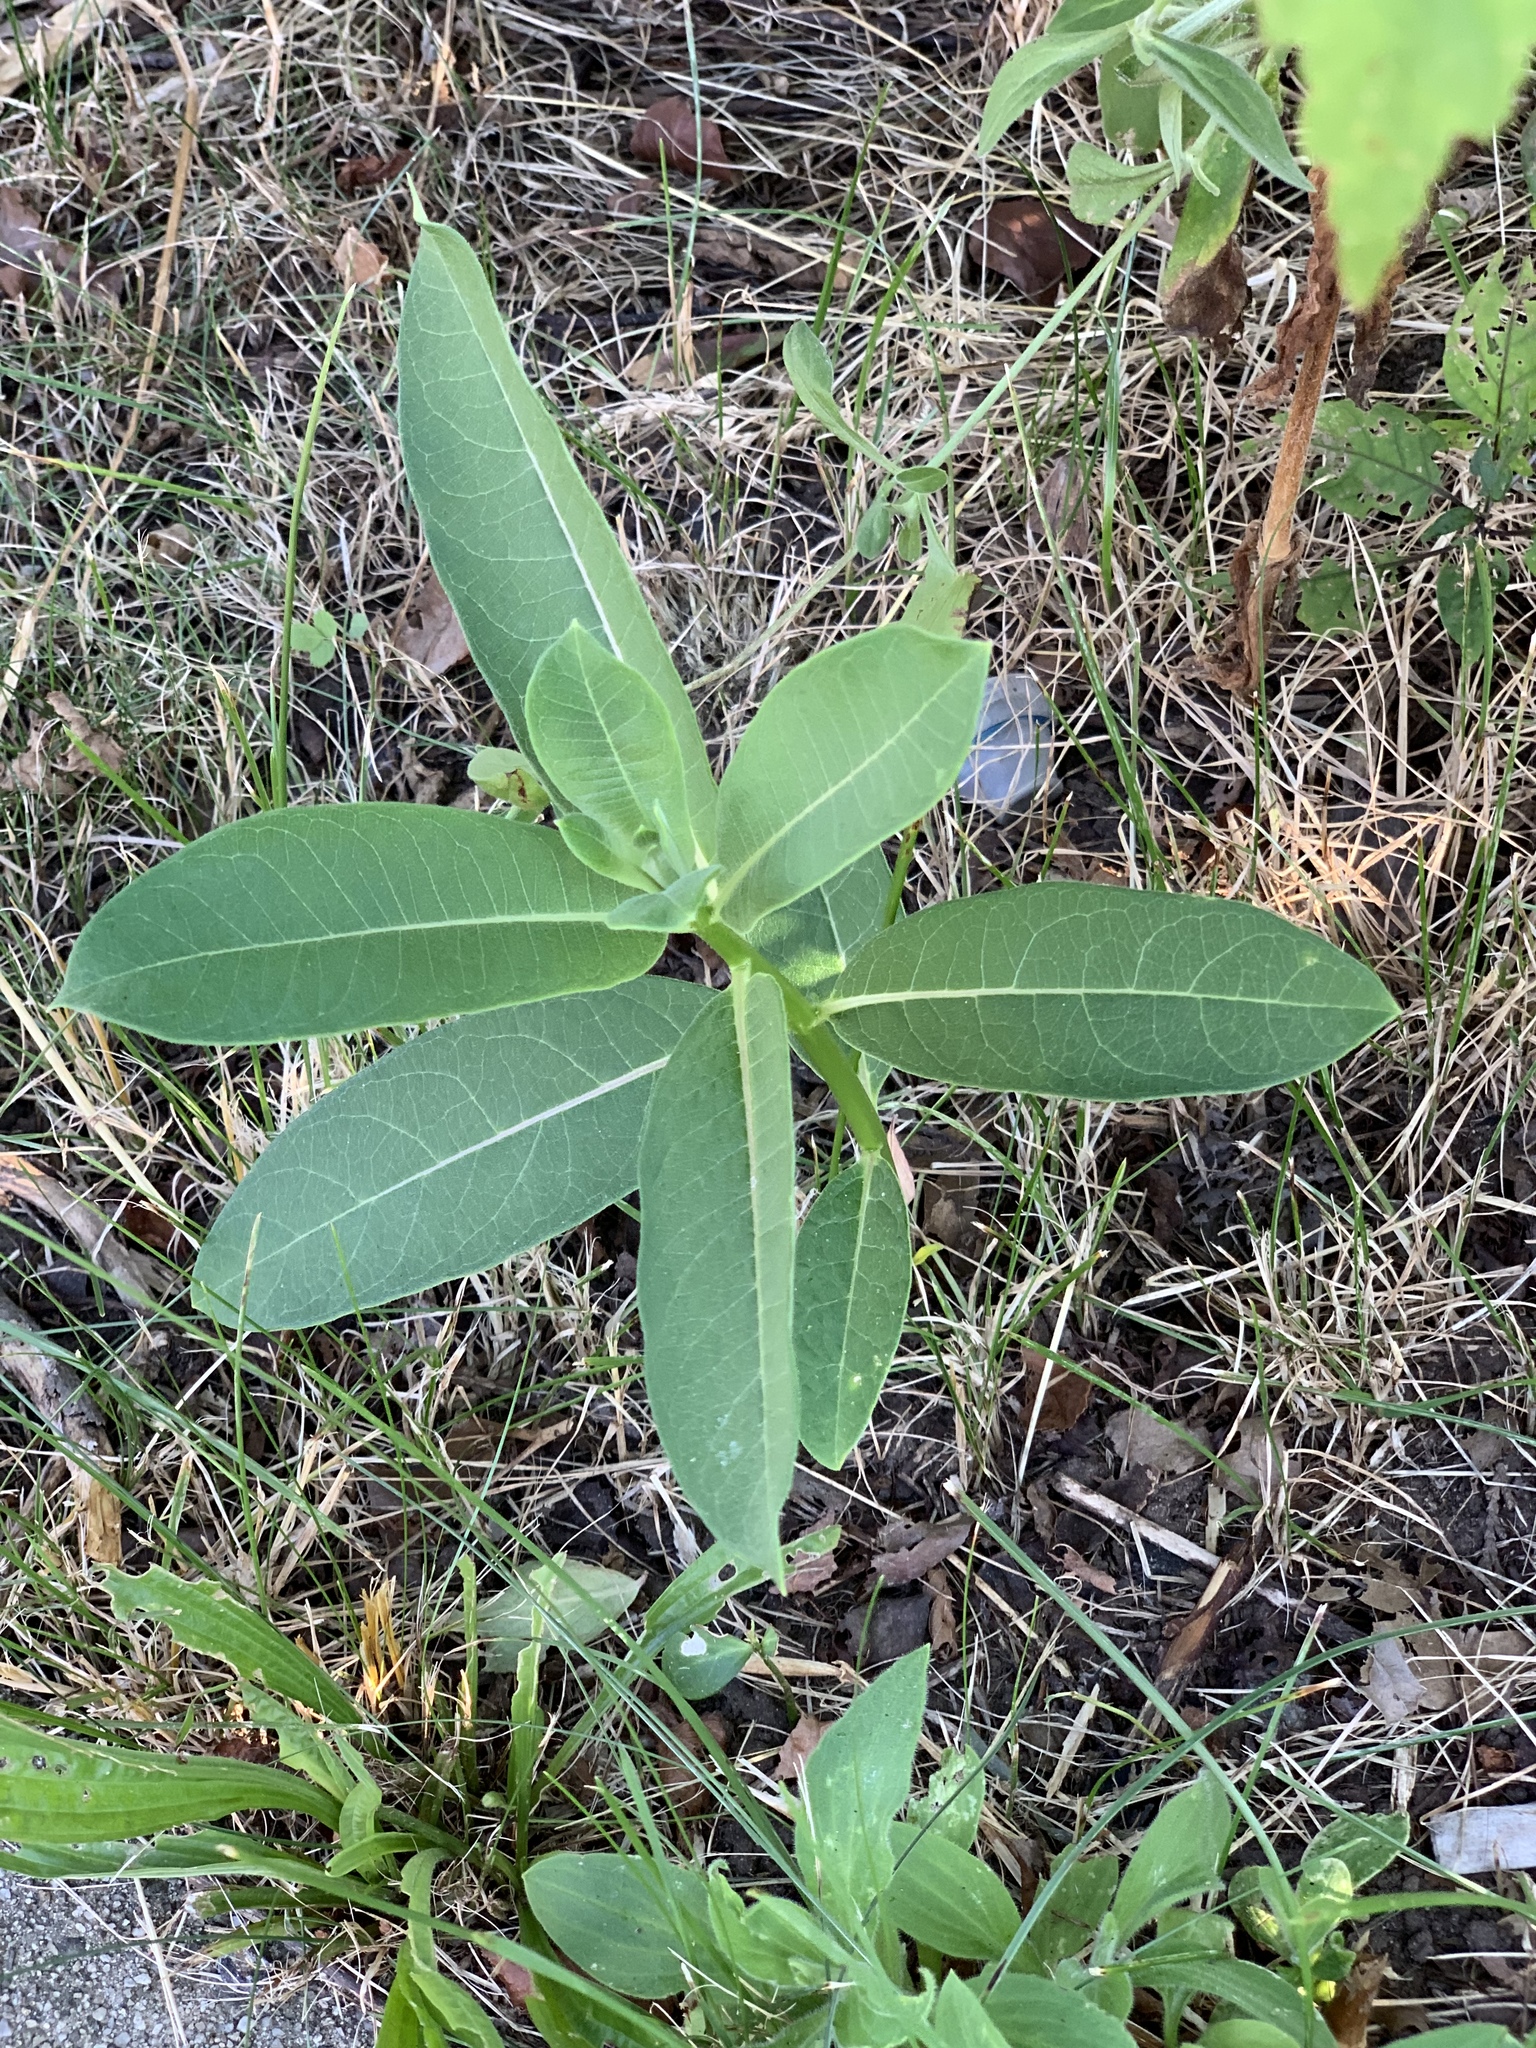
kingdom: Plantae
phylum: Tracheophyta
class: Magnoliopsida
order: Gentianales
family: Apocynaceae
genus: Asclepias
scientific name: Asclepias syriaca
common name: Common milkweed
